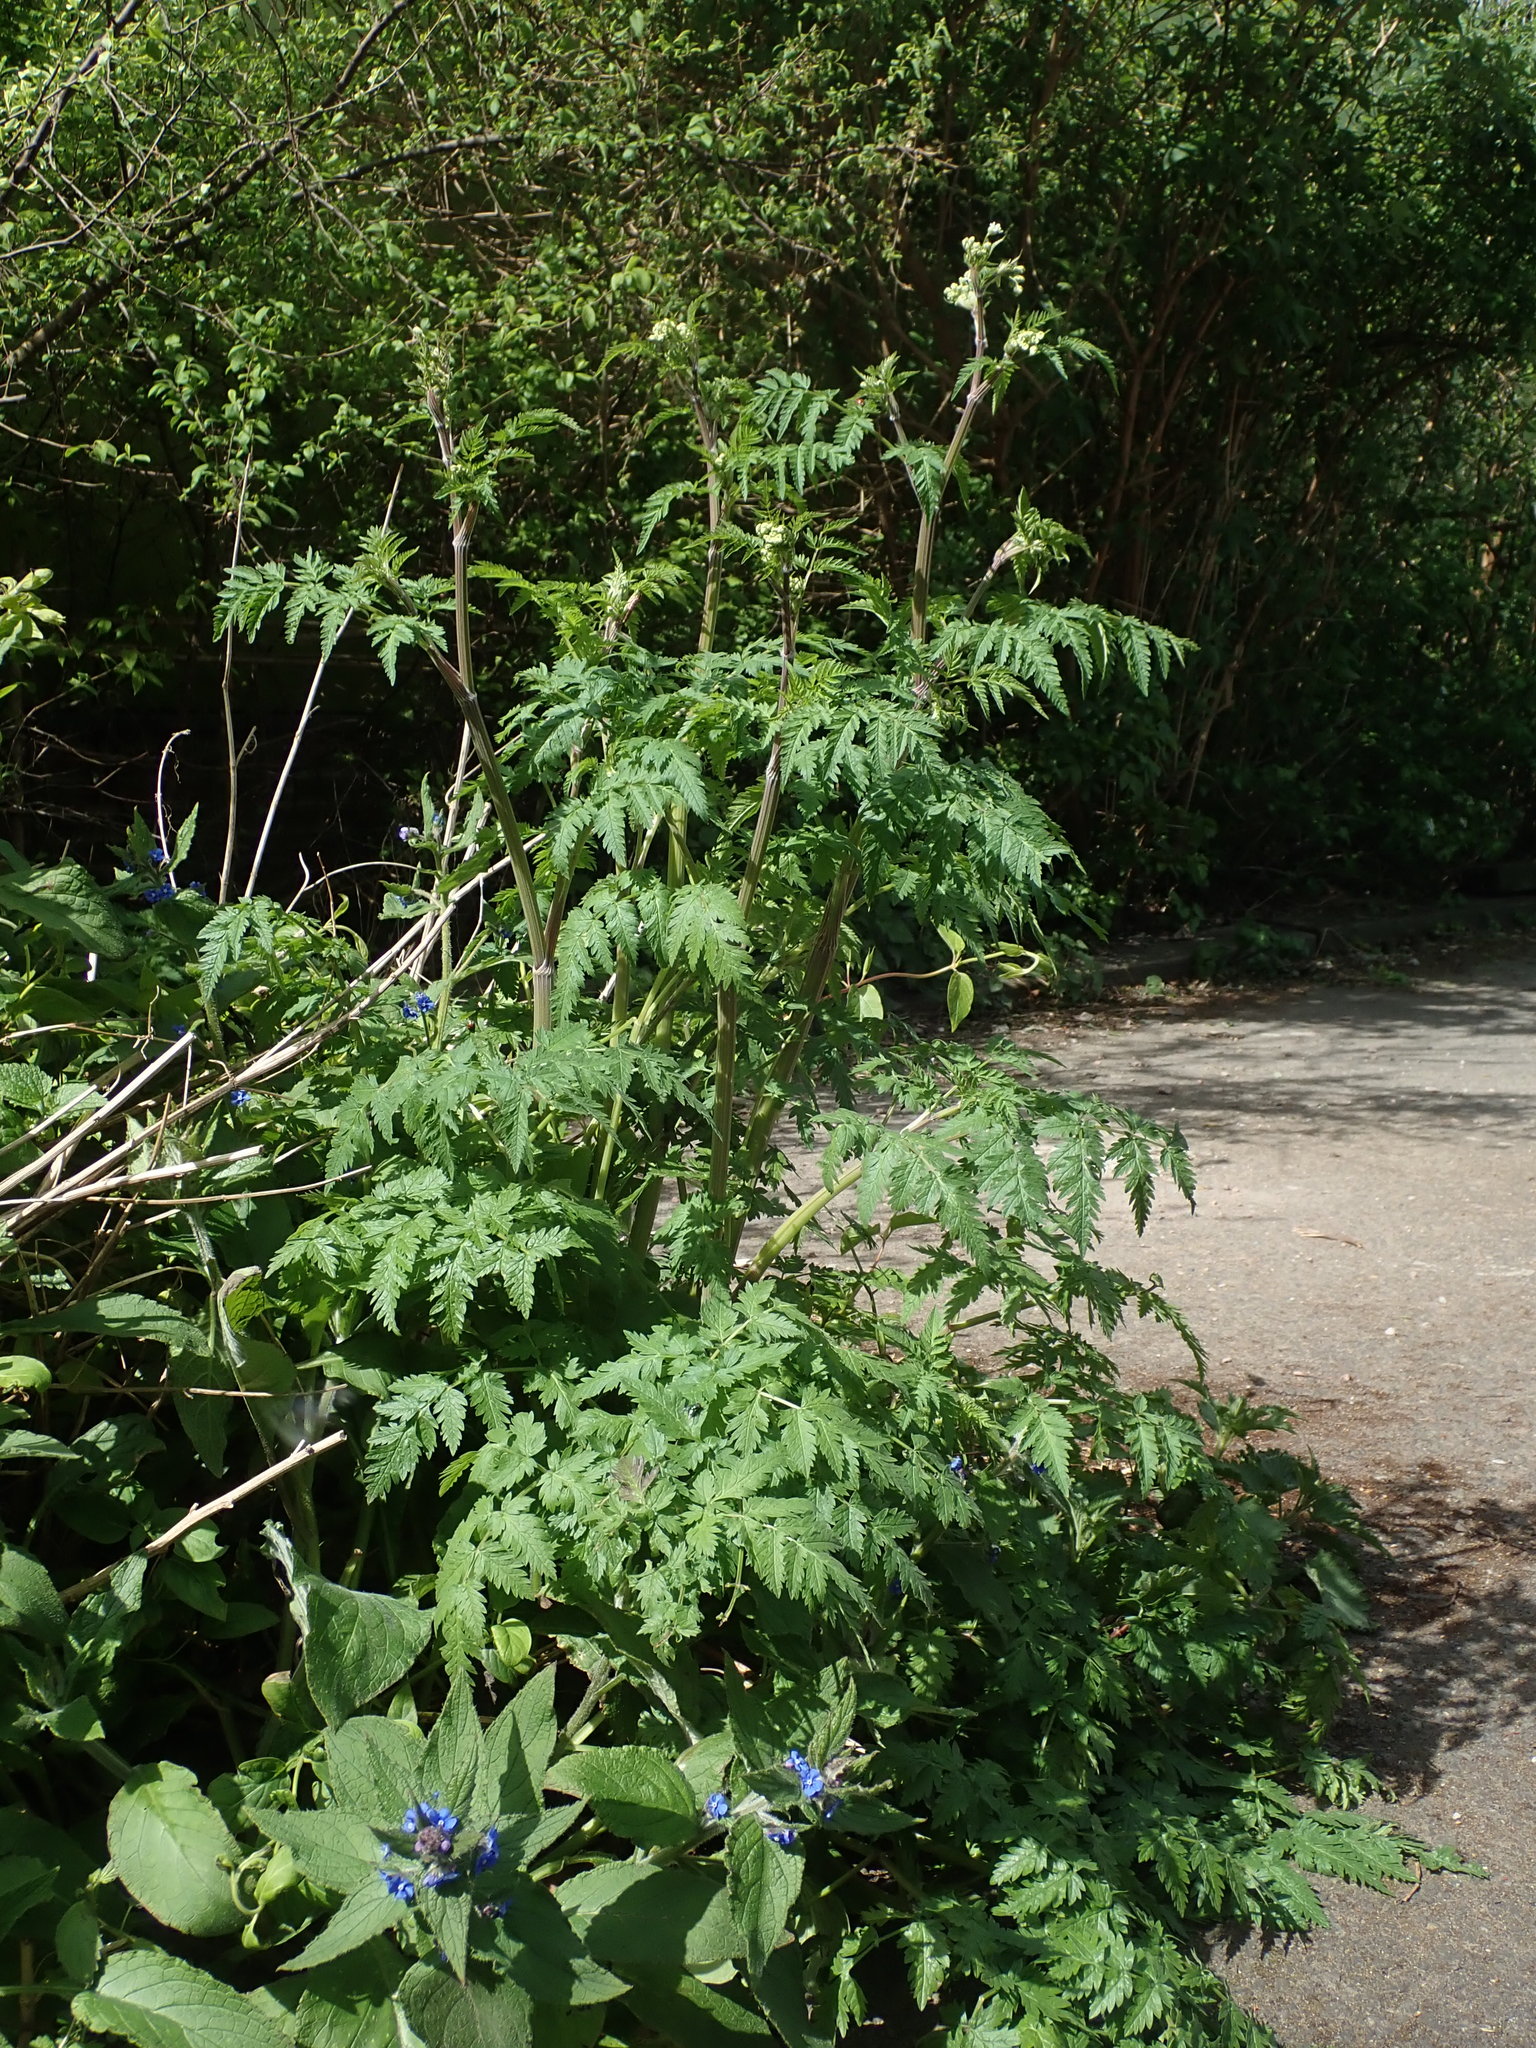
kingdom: Plantae
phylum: Tracheophyta
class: Magnoliopsida
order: Apiales
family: Apiaceae
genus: Anthriscus
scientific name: Anthriscus sylvestris
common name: Cow parsley
